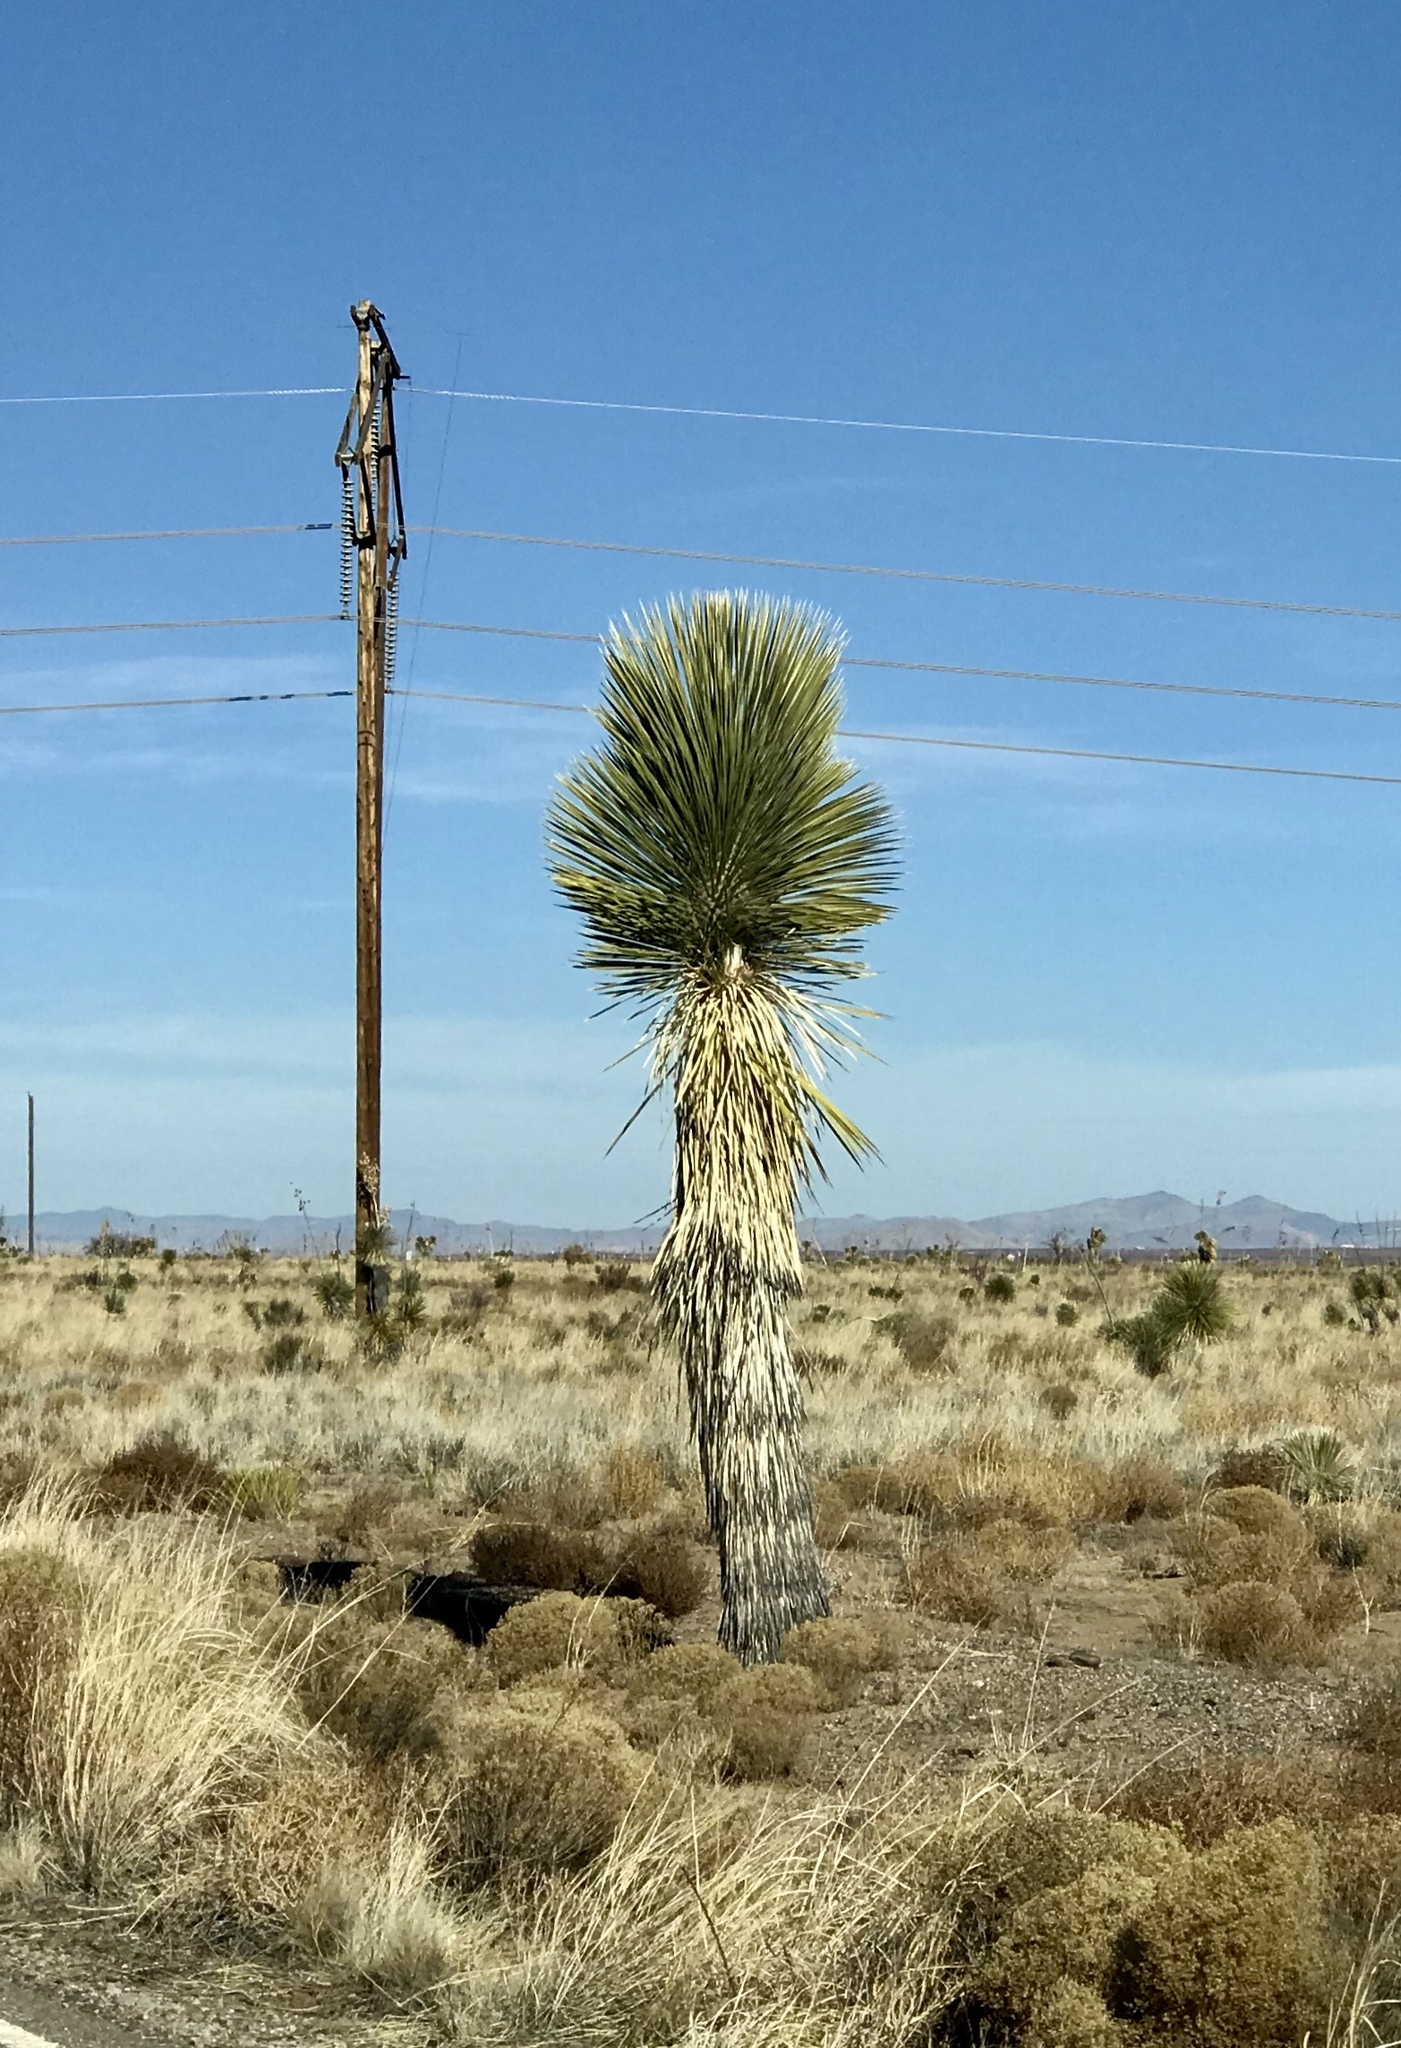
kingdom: Plantae
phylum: Tracheophyta
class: Liliopsida
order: Asparagales
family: Asparagaceae
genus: Yucca
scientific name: Yucca elata
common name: Palmella
